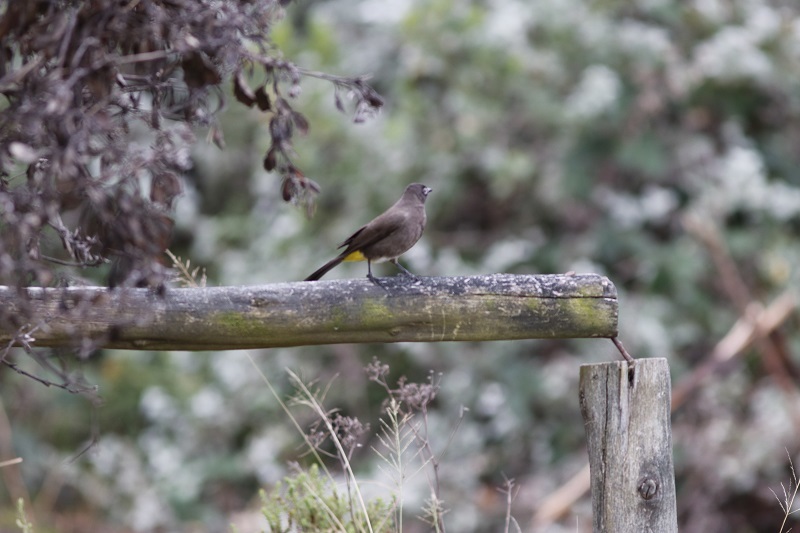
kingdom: Animalia
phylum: Chordata
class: Aves
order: Passeriformes
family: Pycnonotidae
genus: Pycnonotus
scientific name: Pycnonotus capensis
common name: Cape bulbul
